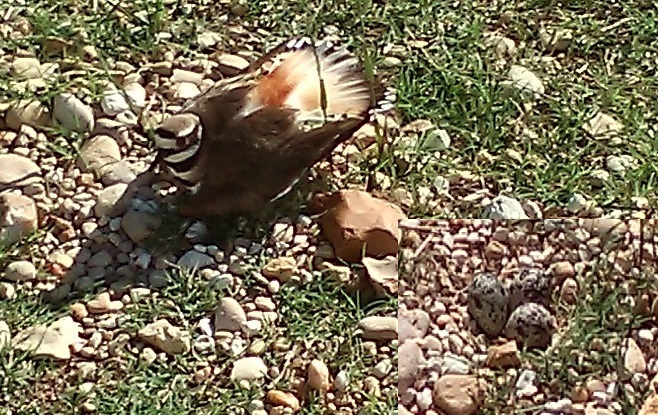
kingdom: Animalia
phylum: Chordata
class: Aves
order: Charadriiformes
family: Charadriidae
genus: Charadrius
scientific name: Charadrius vociferus
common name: Killdeer
